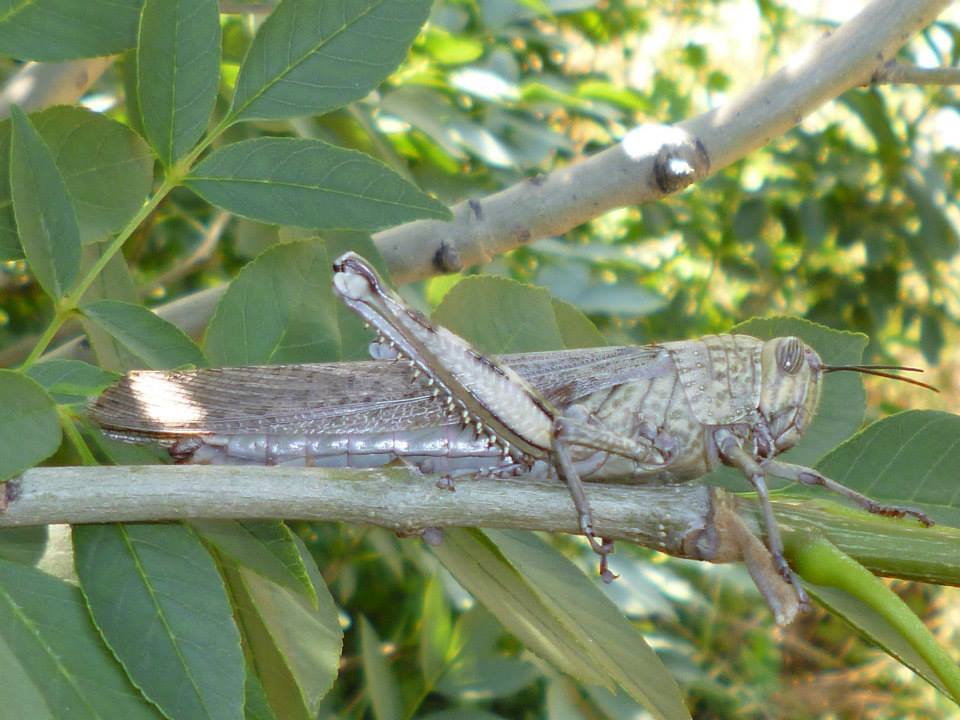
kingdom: Animalia
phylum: Arthropoda
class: Insecta
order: Orthoptera
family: Acrididae
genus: Anacridium
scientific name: Anacridium aegyptium
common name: Egyptian grasshopper
